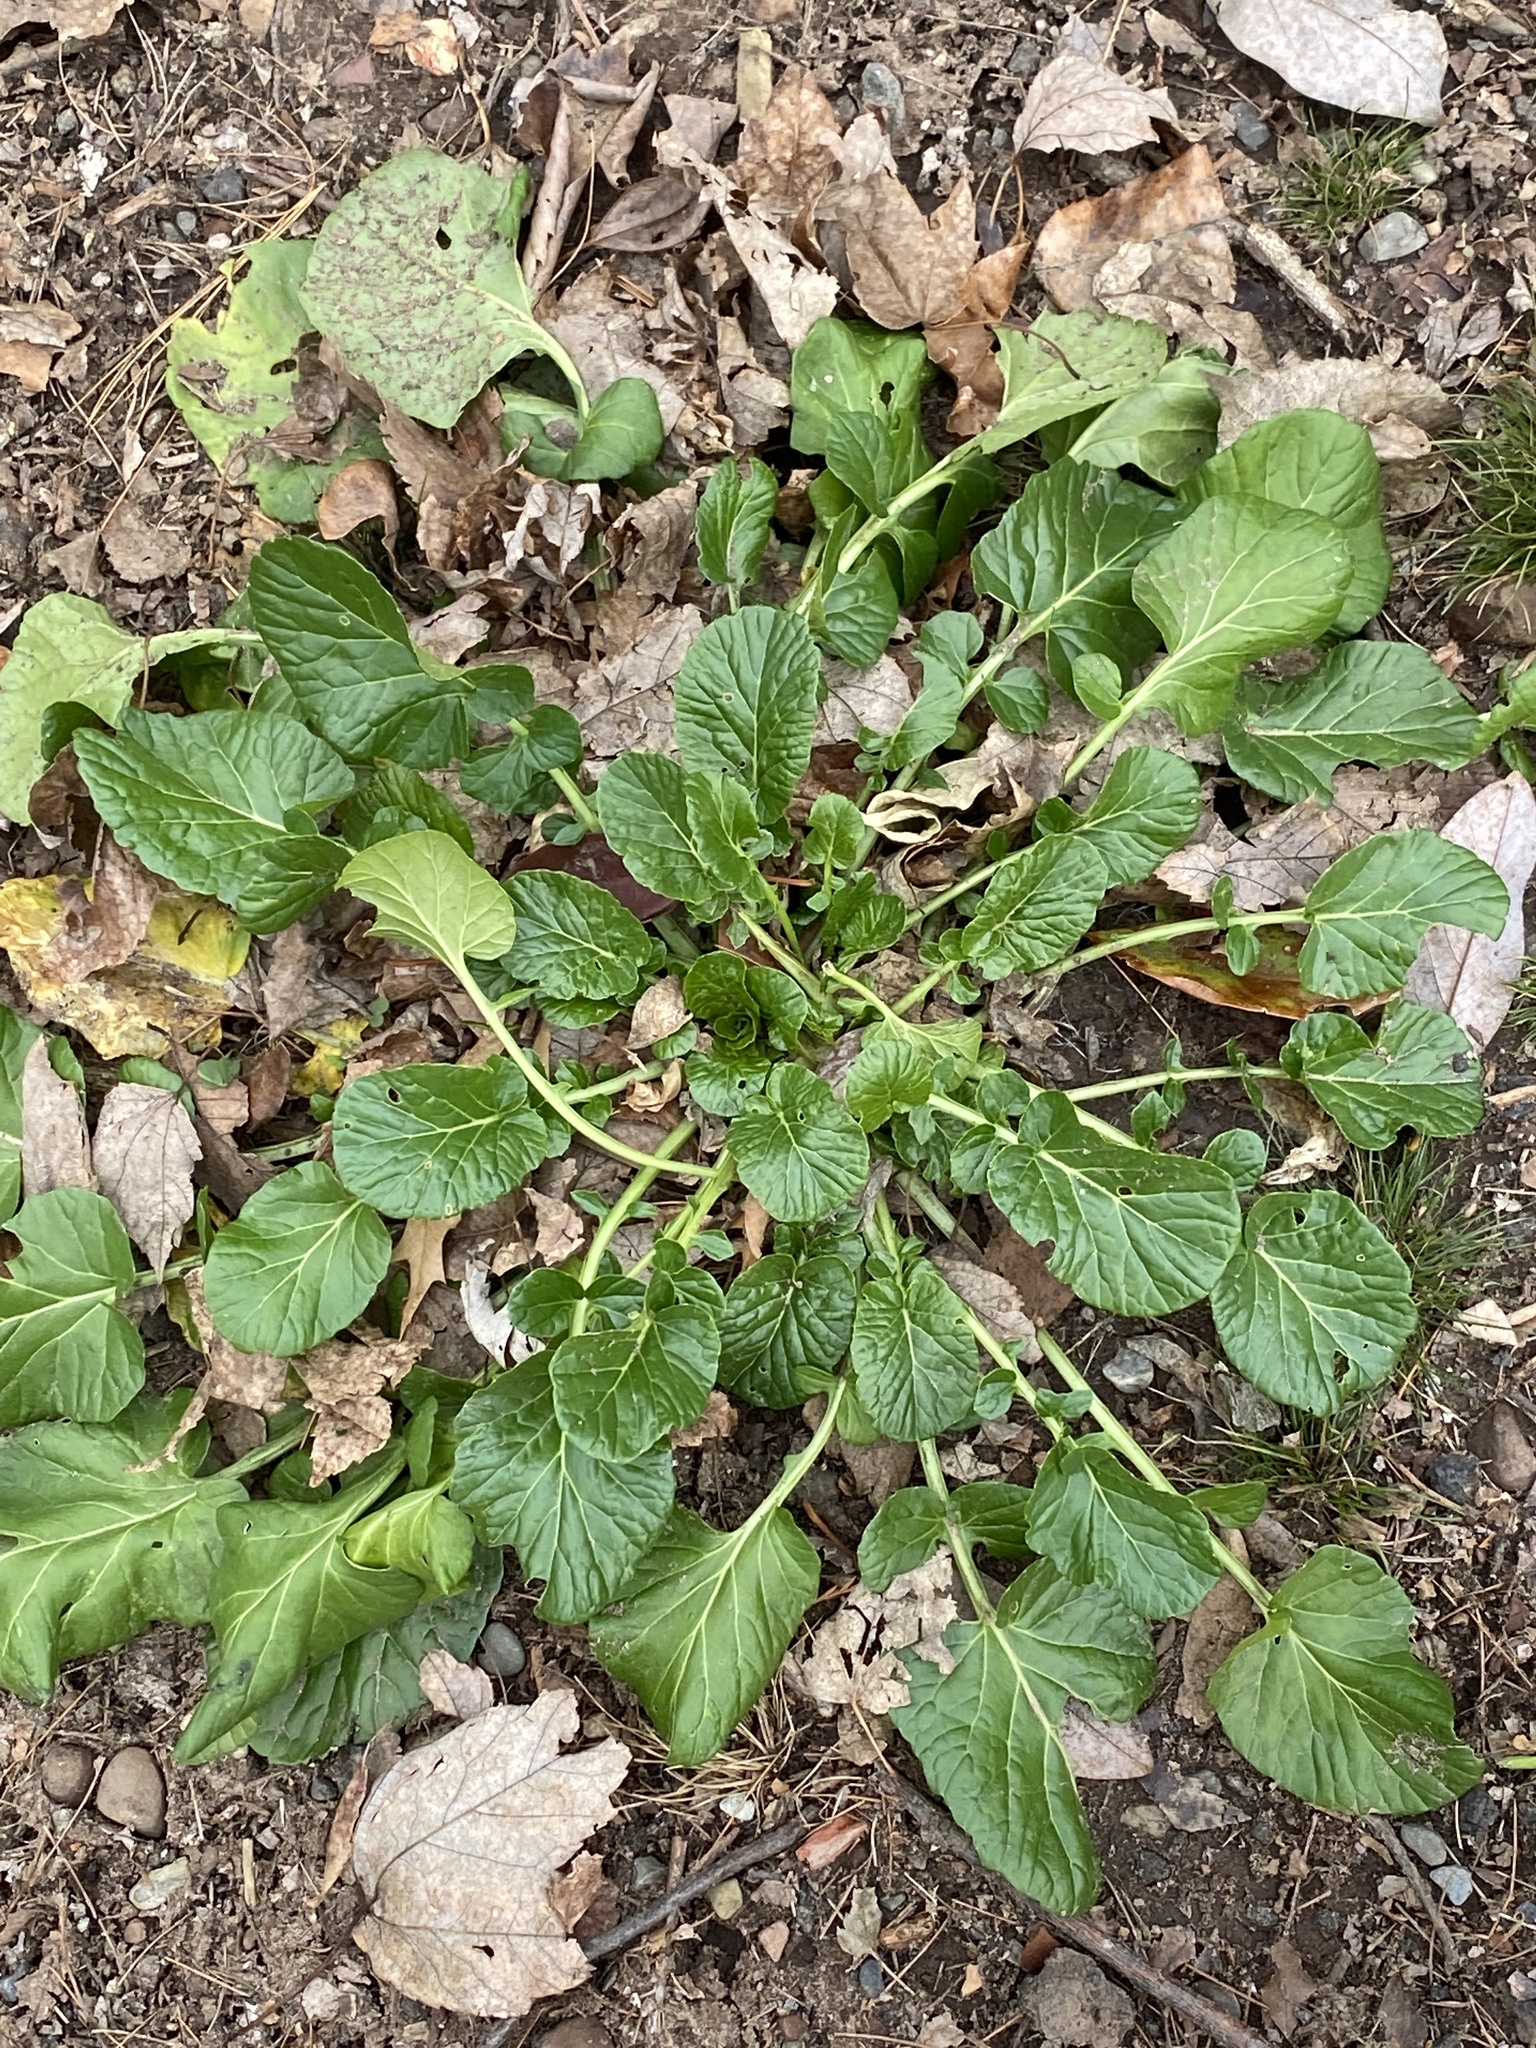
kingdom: Plantae
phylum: Tracheophyta
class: Magnoliopsida
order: Brassicales
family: Brassicaceae
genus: Barbarea
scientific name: Barbarea vulgaris
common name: Cressy-greens
